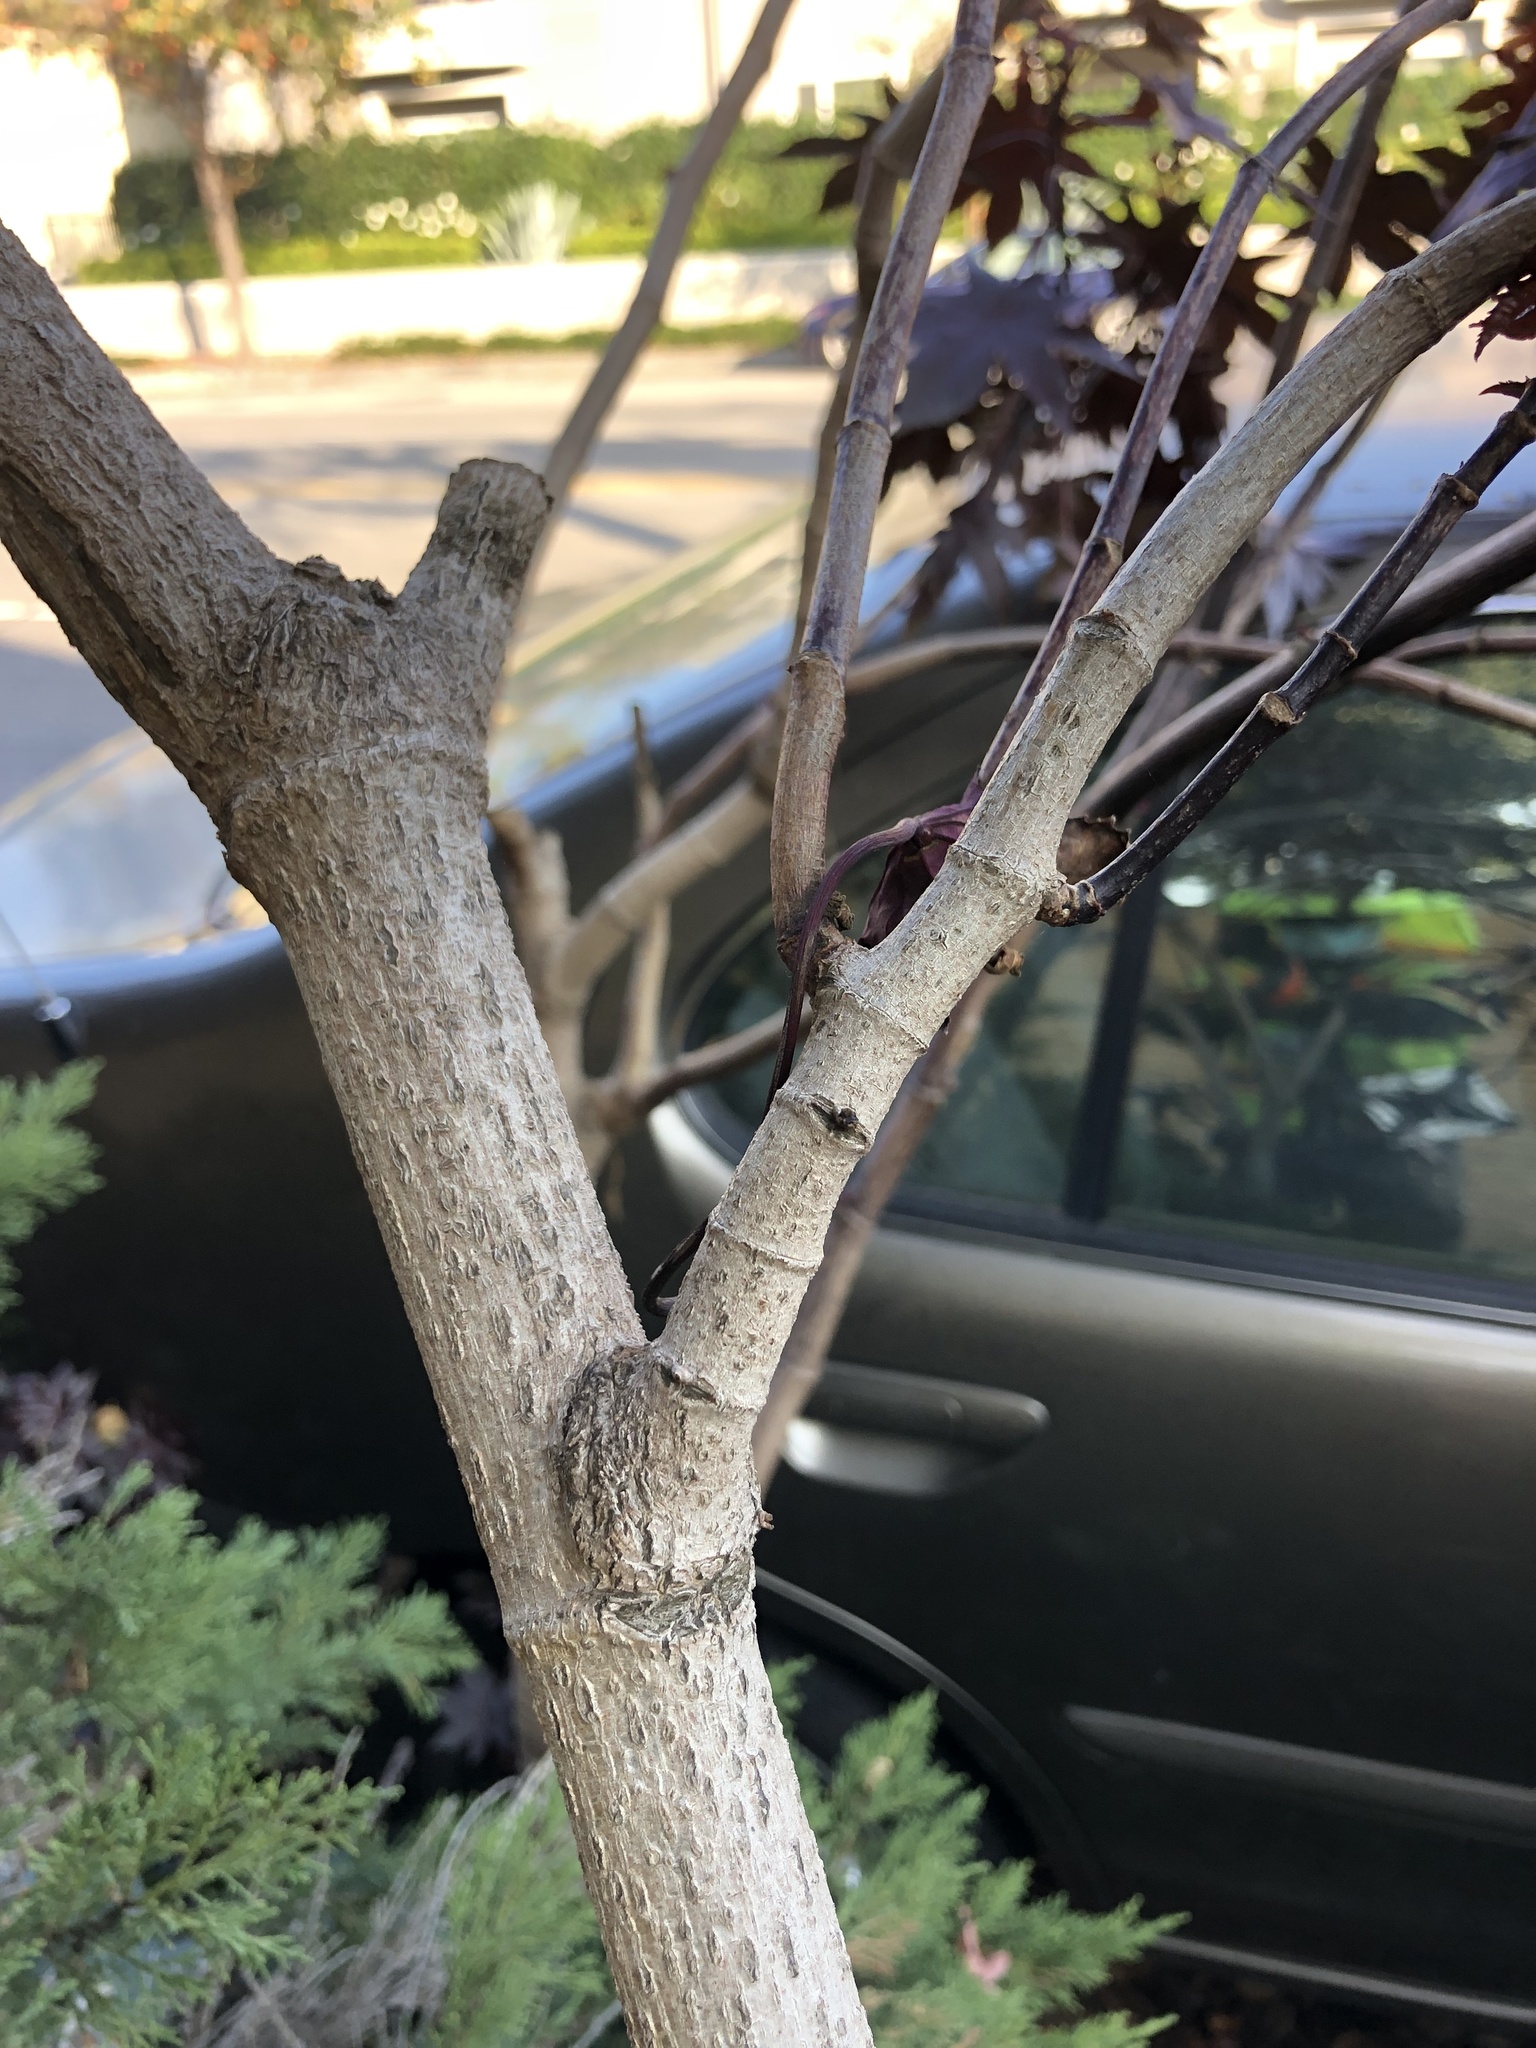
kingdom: Plantae
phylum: Tracheophyta
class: Magnoliopsida
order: Malpighiales
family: Euphorbiaceae
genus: Ricinus
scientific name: Ricinus communis
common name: Castor-oil-plant
